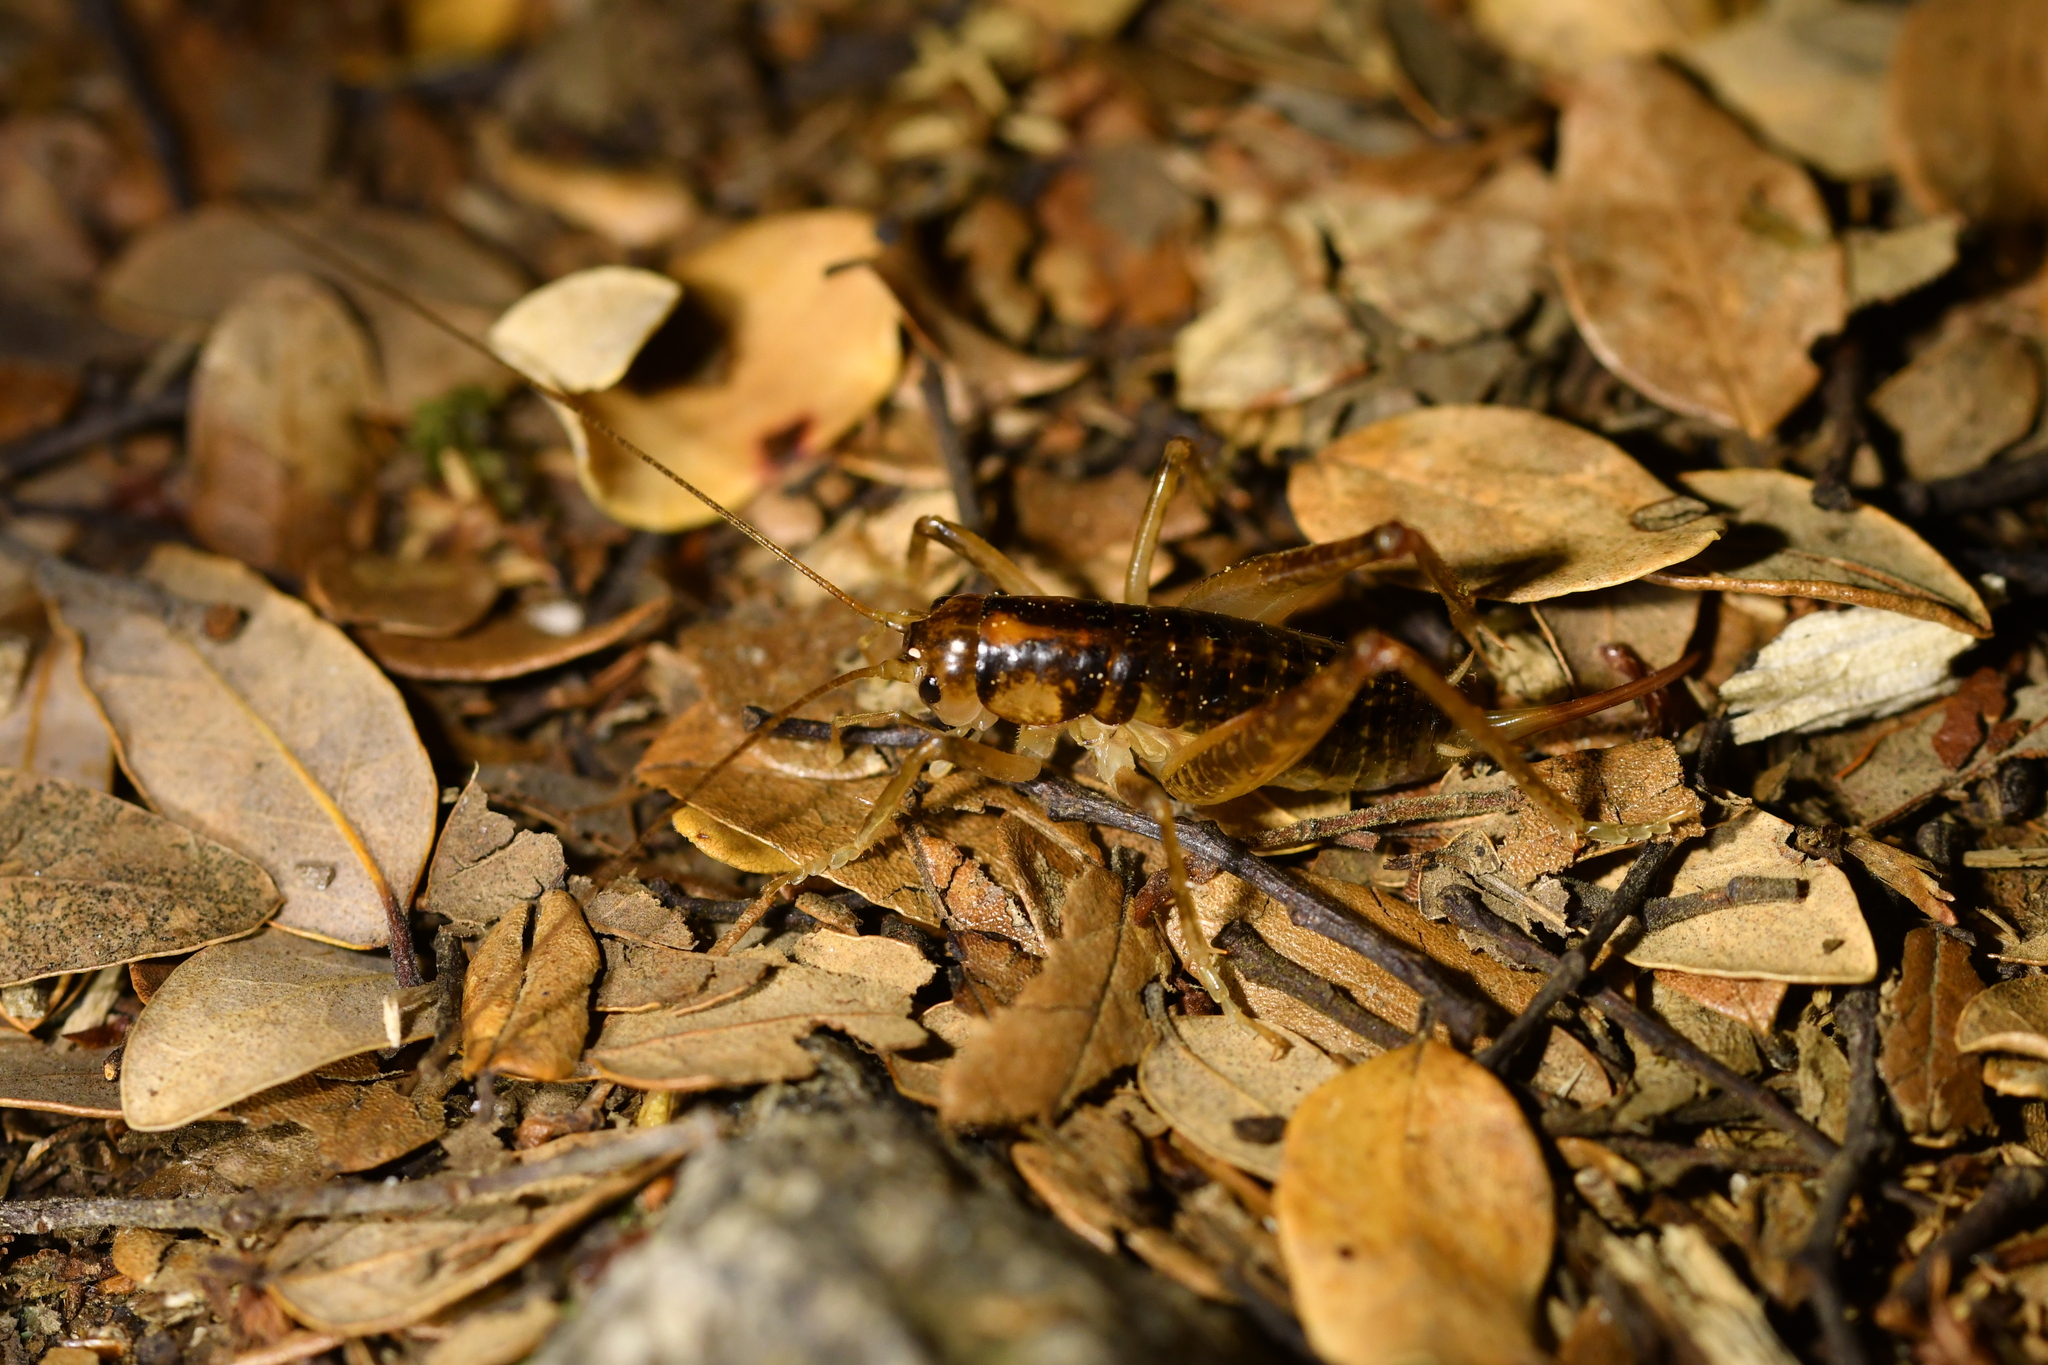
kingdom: Animalia
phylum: Arthropoda
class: Insecta
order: Orthoptera
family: Anostostomatidae
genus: Hemiandrus
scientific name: Hemiandrus maculifrons
